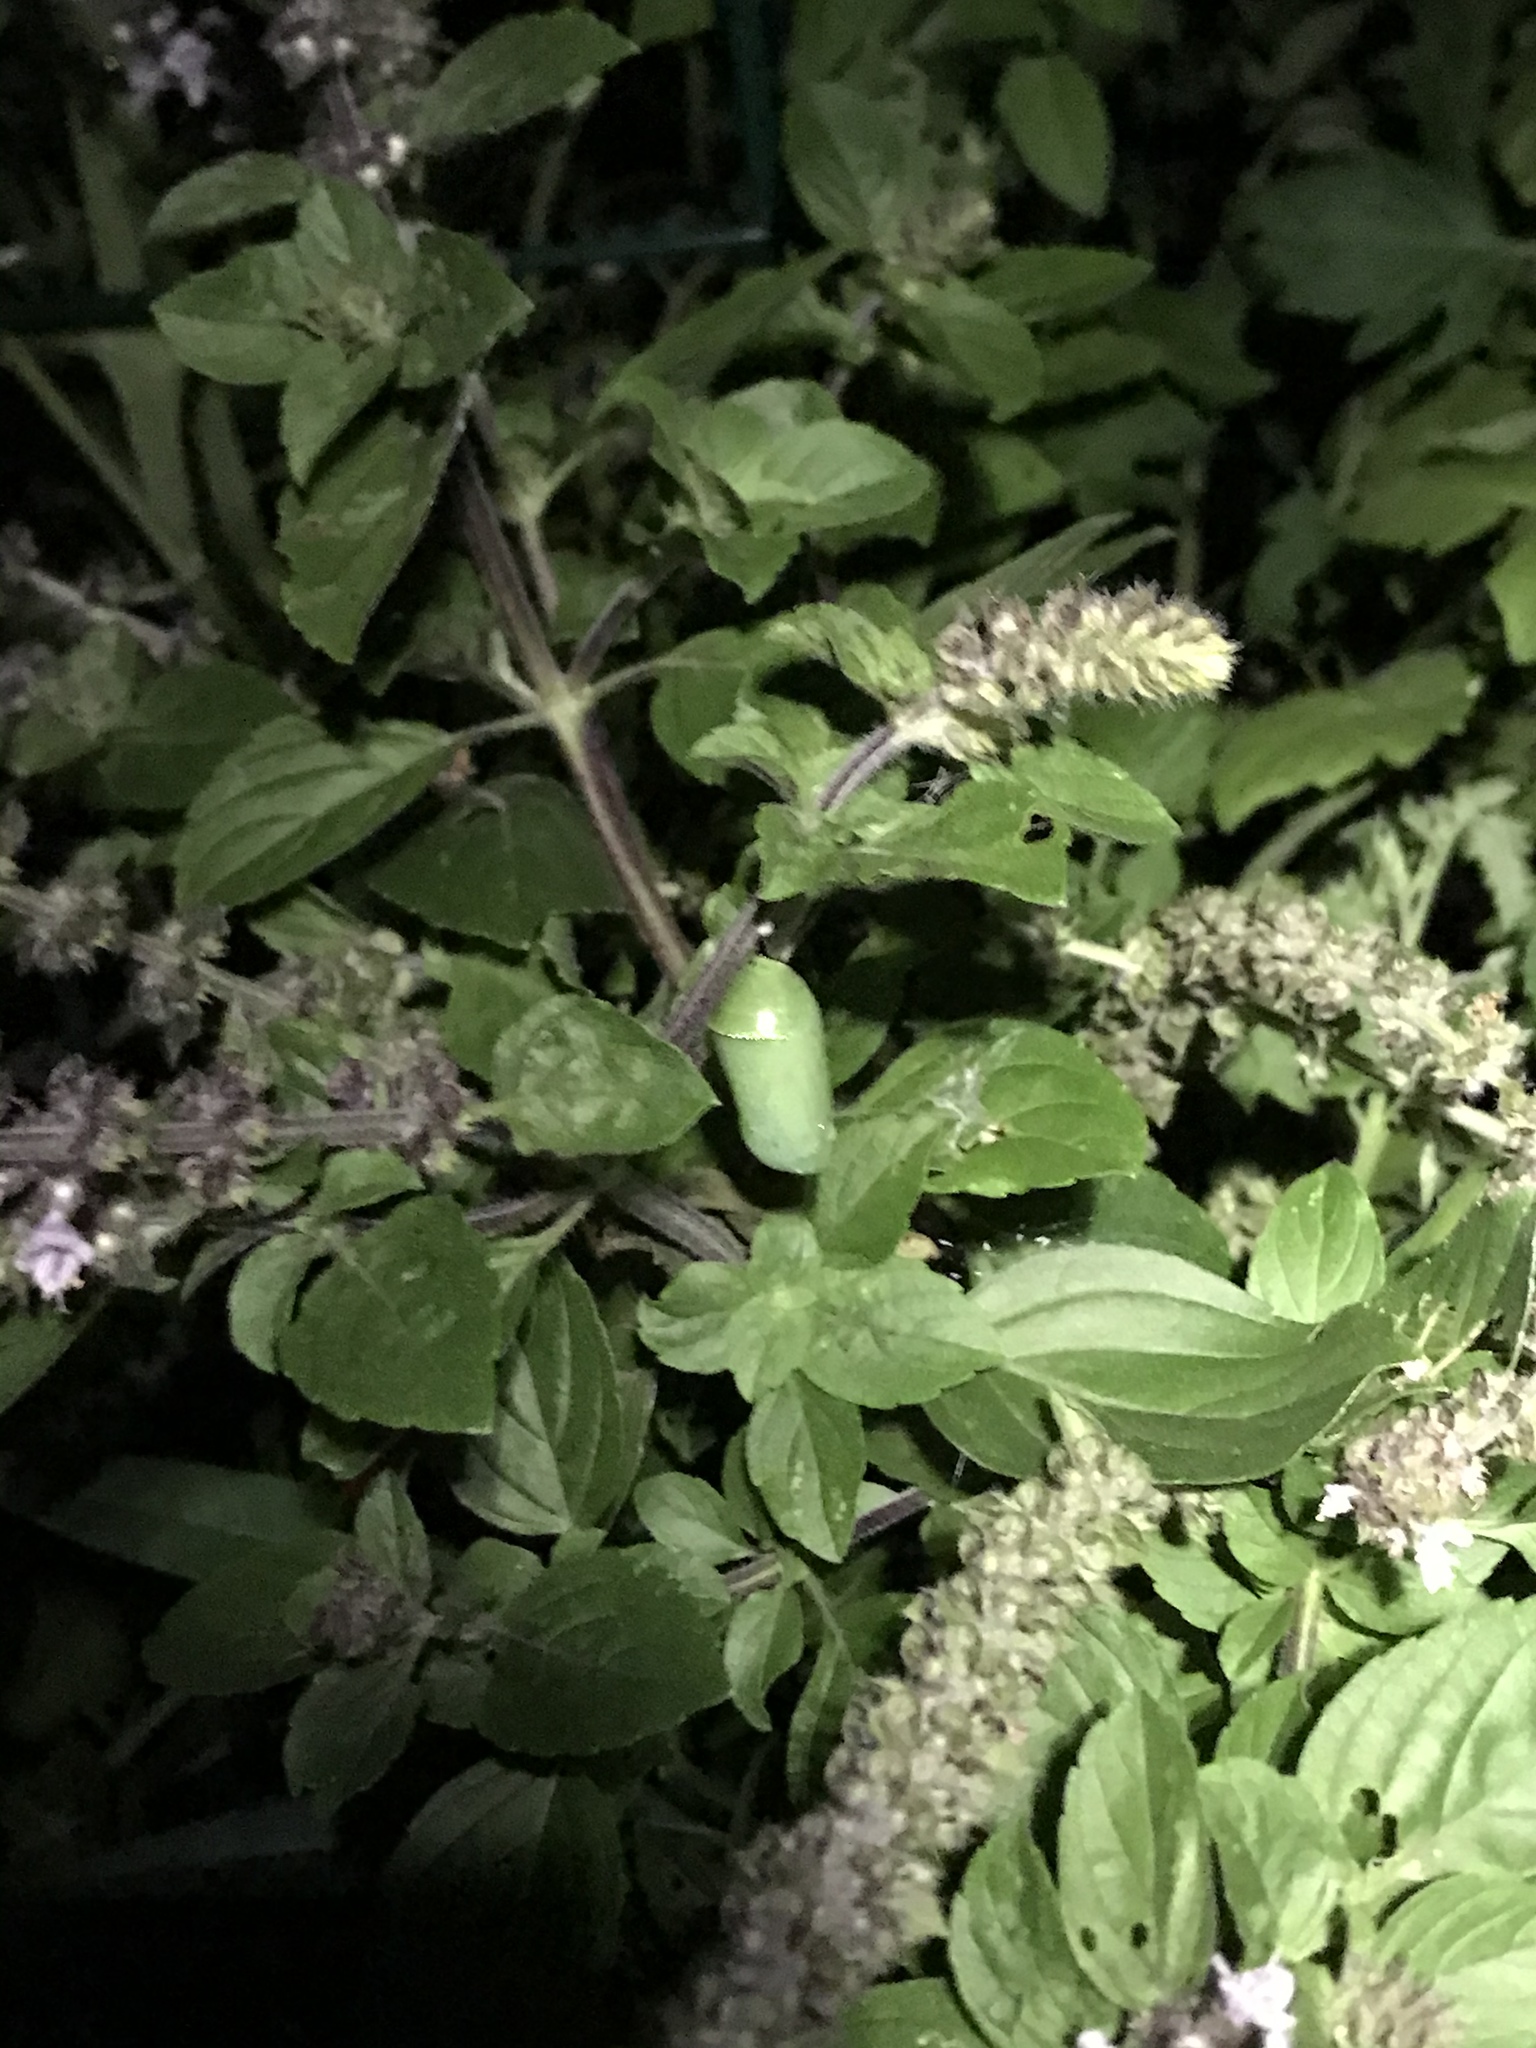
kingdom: Animalia
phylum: Arthropoda
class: Insecta
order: Lepidoptera
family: Nymphalidae
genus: Danaus
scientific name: Danaus plexippus
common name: Monarch
